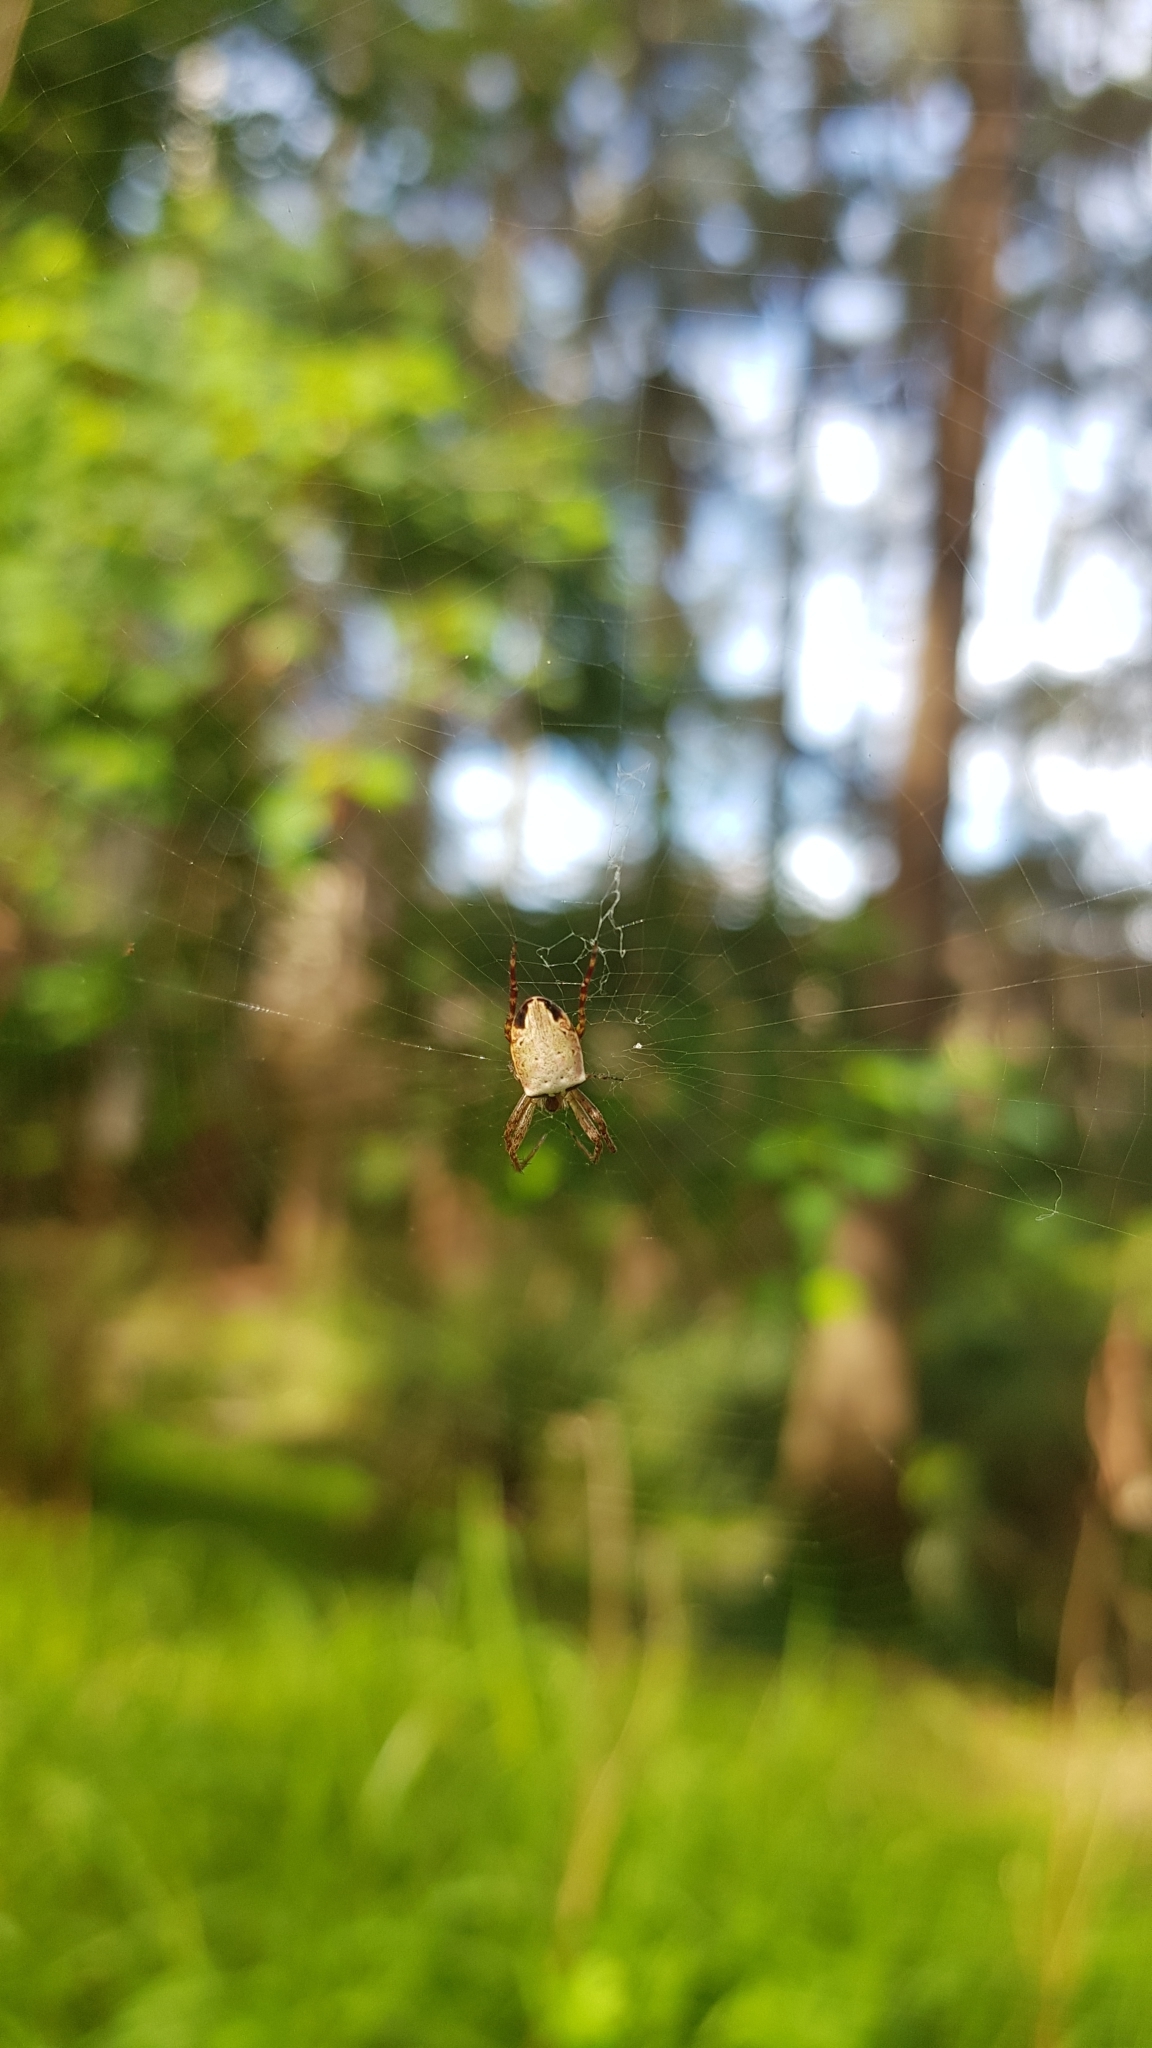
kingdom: Animalia
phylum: Arthropoda
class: Arachnida
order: Araneae
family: Araneidae
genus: Plebs
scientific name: Plebs eburnus
